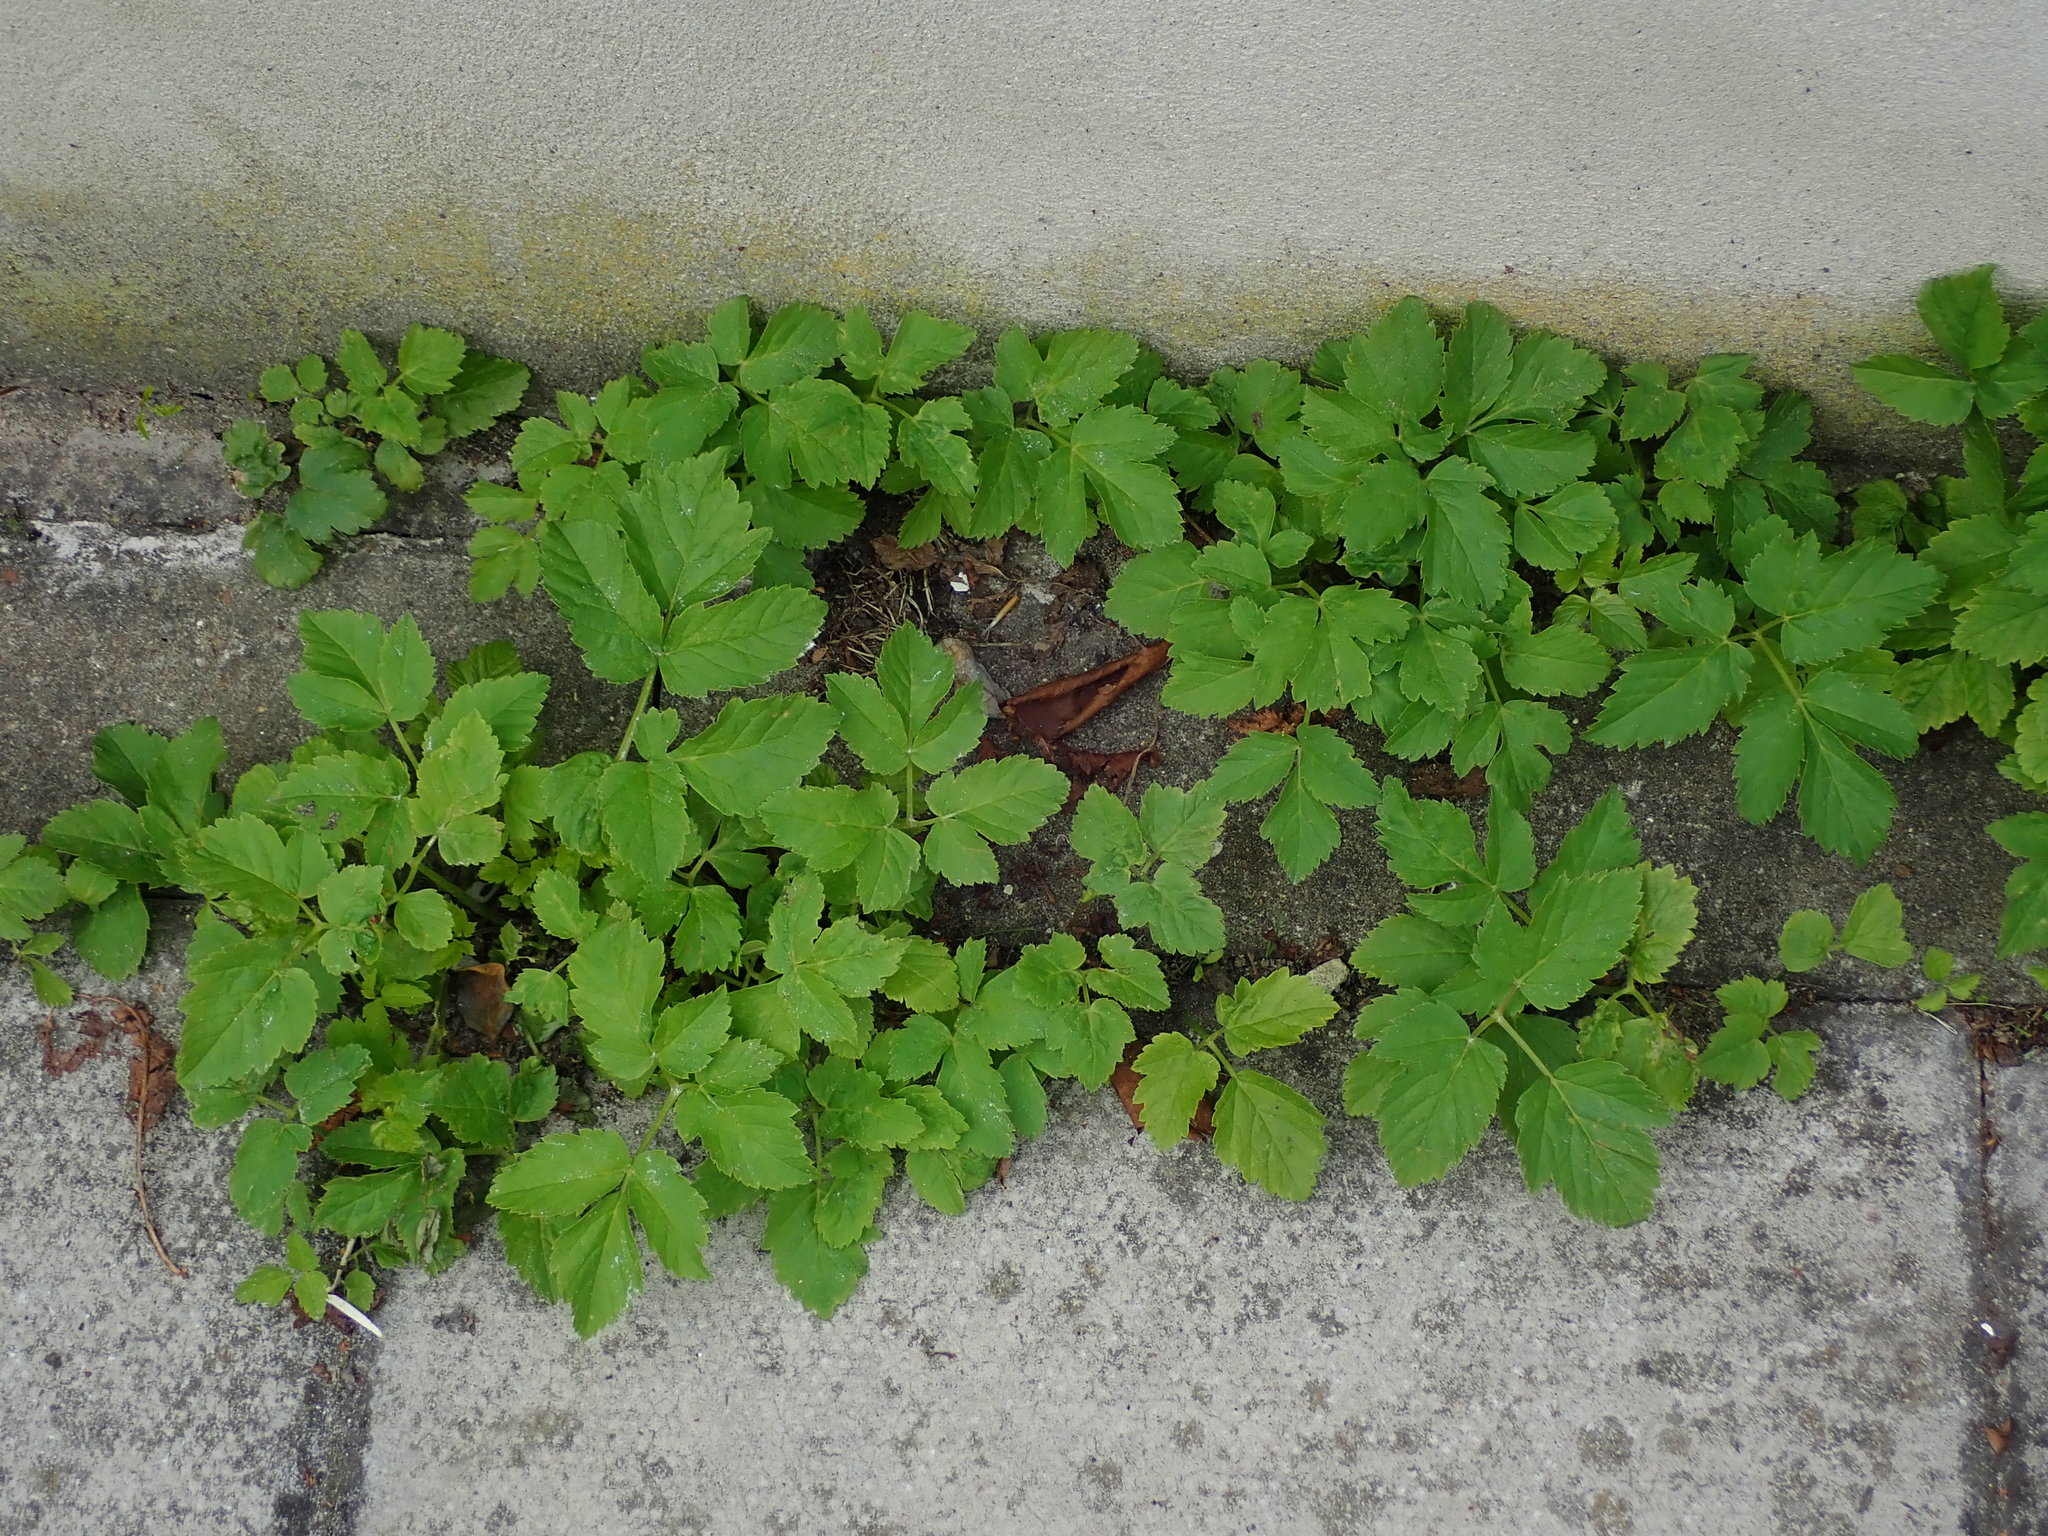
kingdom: Plantae
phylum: Tracheophyta
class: Magnoliopsida
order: Apiales
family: Apiaceae
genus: Aegopodium
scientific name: Aegopodium podagraria
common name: Ground-elder
